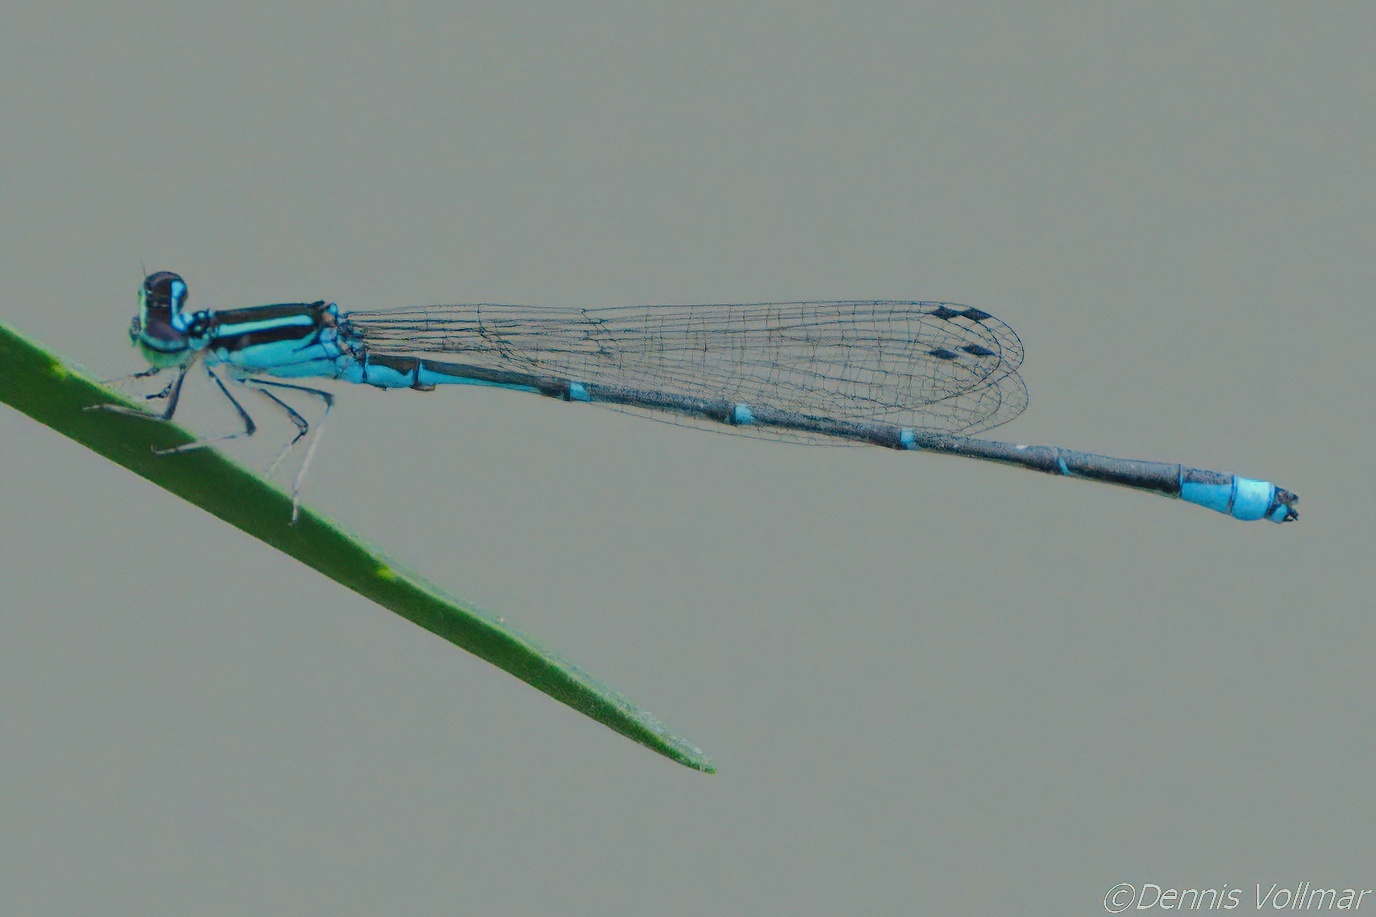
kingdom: Animalia
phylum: Arthropoda
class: Insecta
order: Odonata
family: Coenagrionidae
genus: Enallagma
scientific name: Enallagma exsulans
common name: Stream bluet
